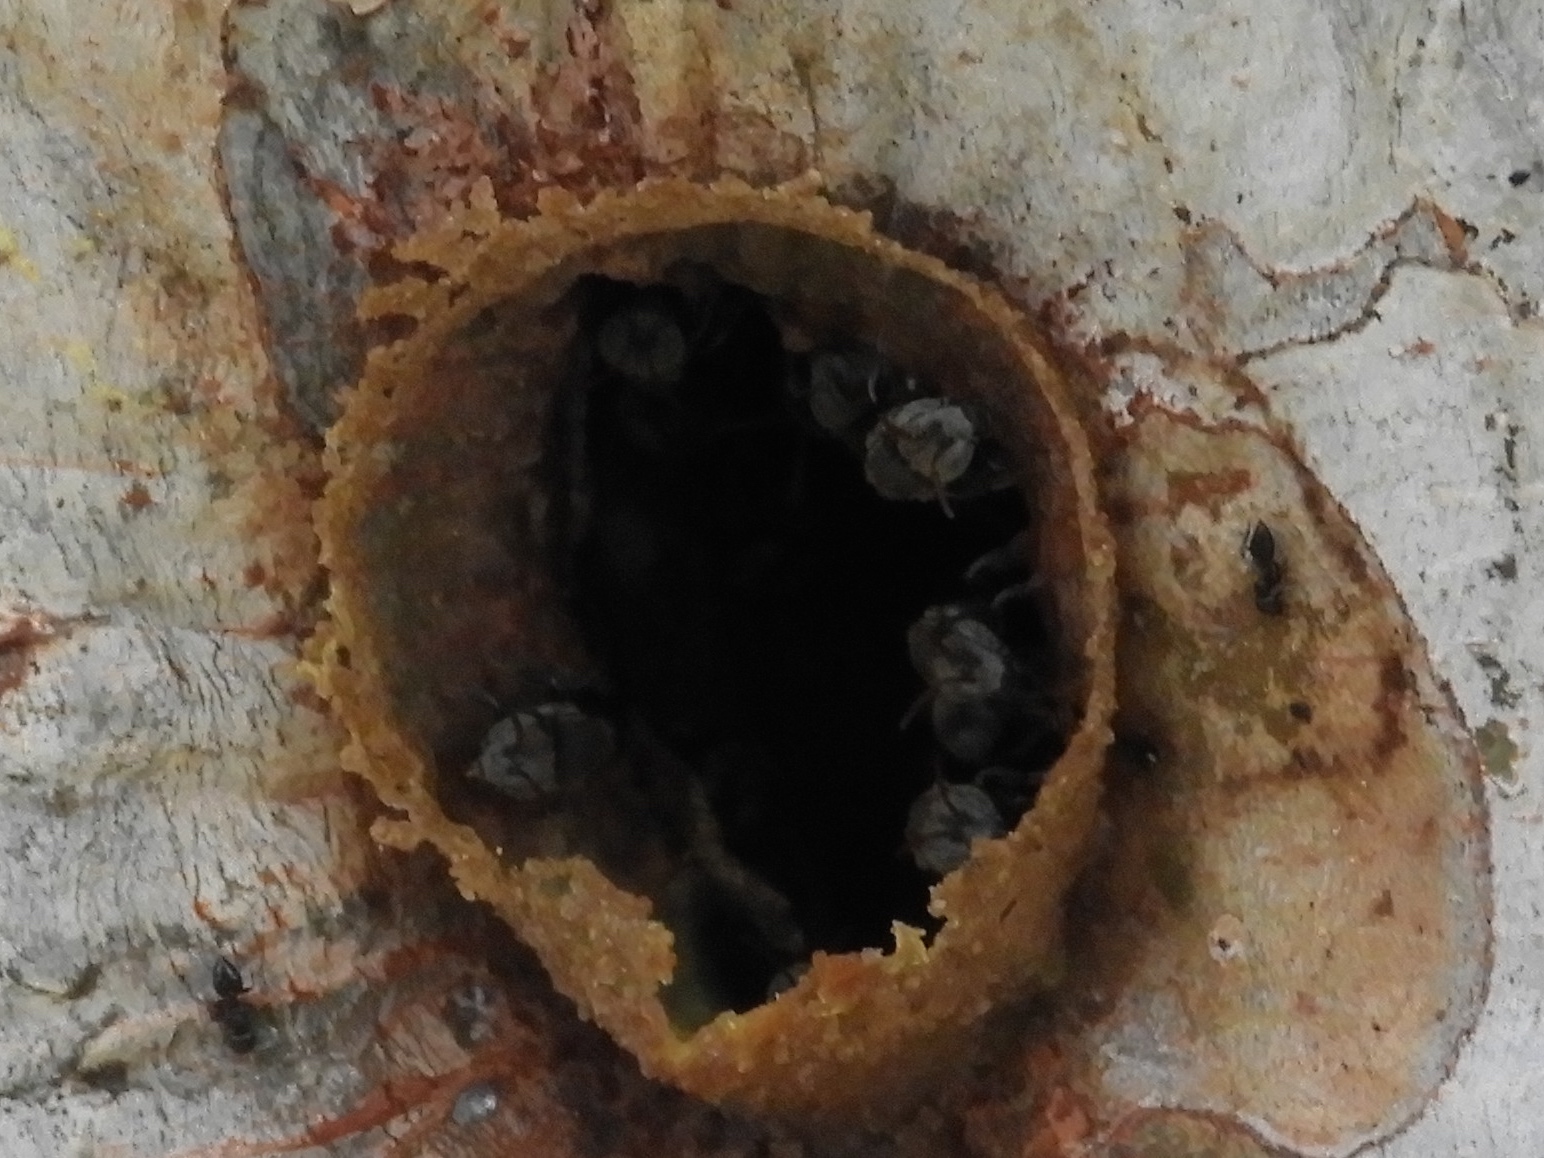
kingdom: Animalia
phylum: Arthropoda
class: Insecta
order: Hymenoptera
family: Apidae
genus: Nannotrigona
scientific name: Nannotrigona
